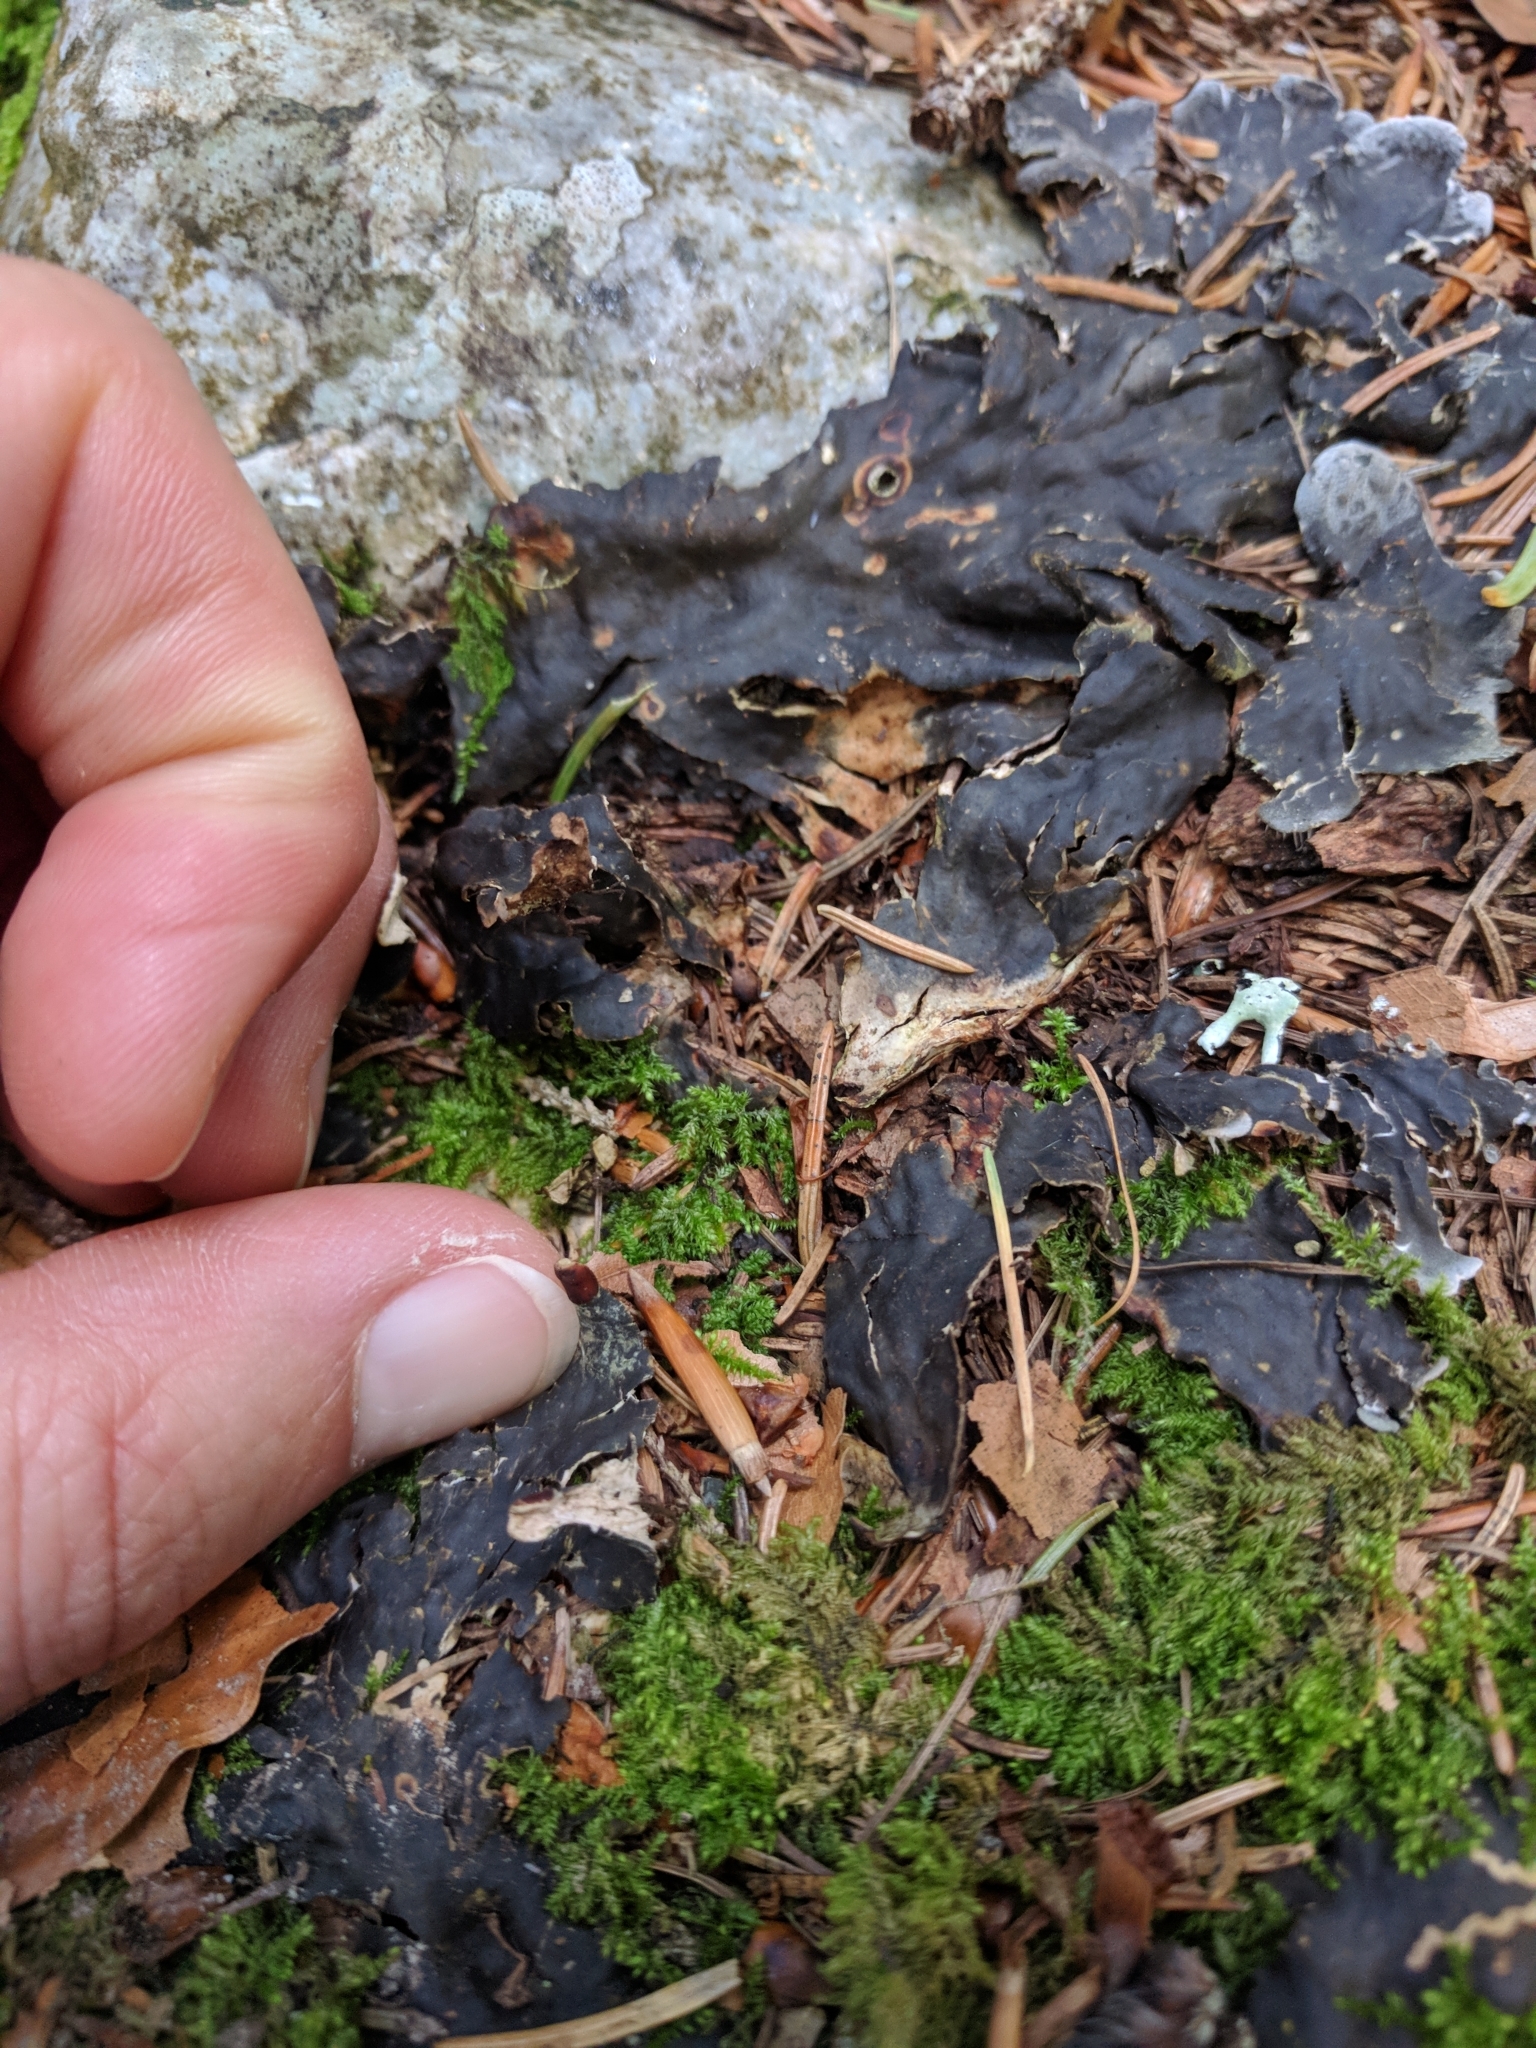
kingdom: Fungi
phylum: Ascomycota
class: Lecanoromycetes
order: Peltigerales
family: Peltigeraceae
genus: Peltigera
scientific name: Peltigera
